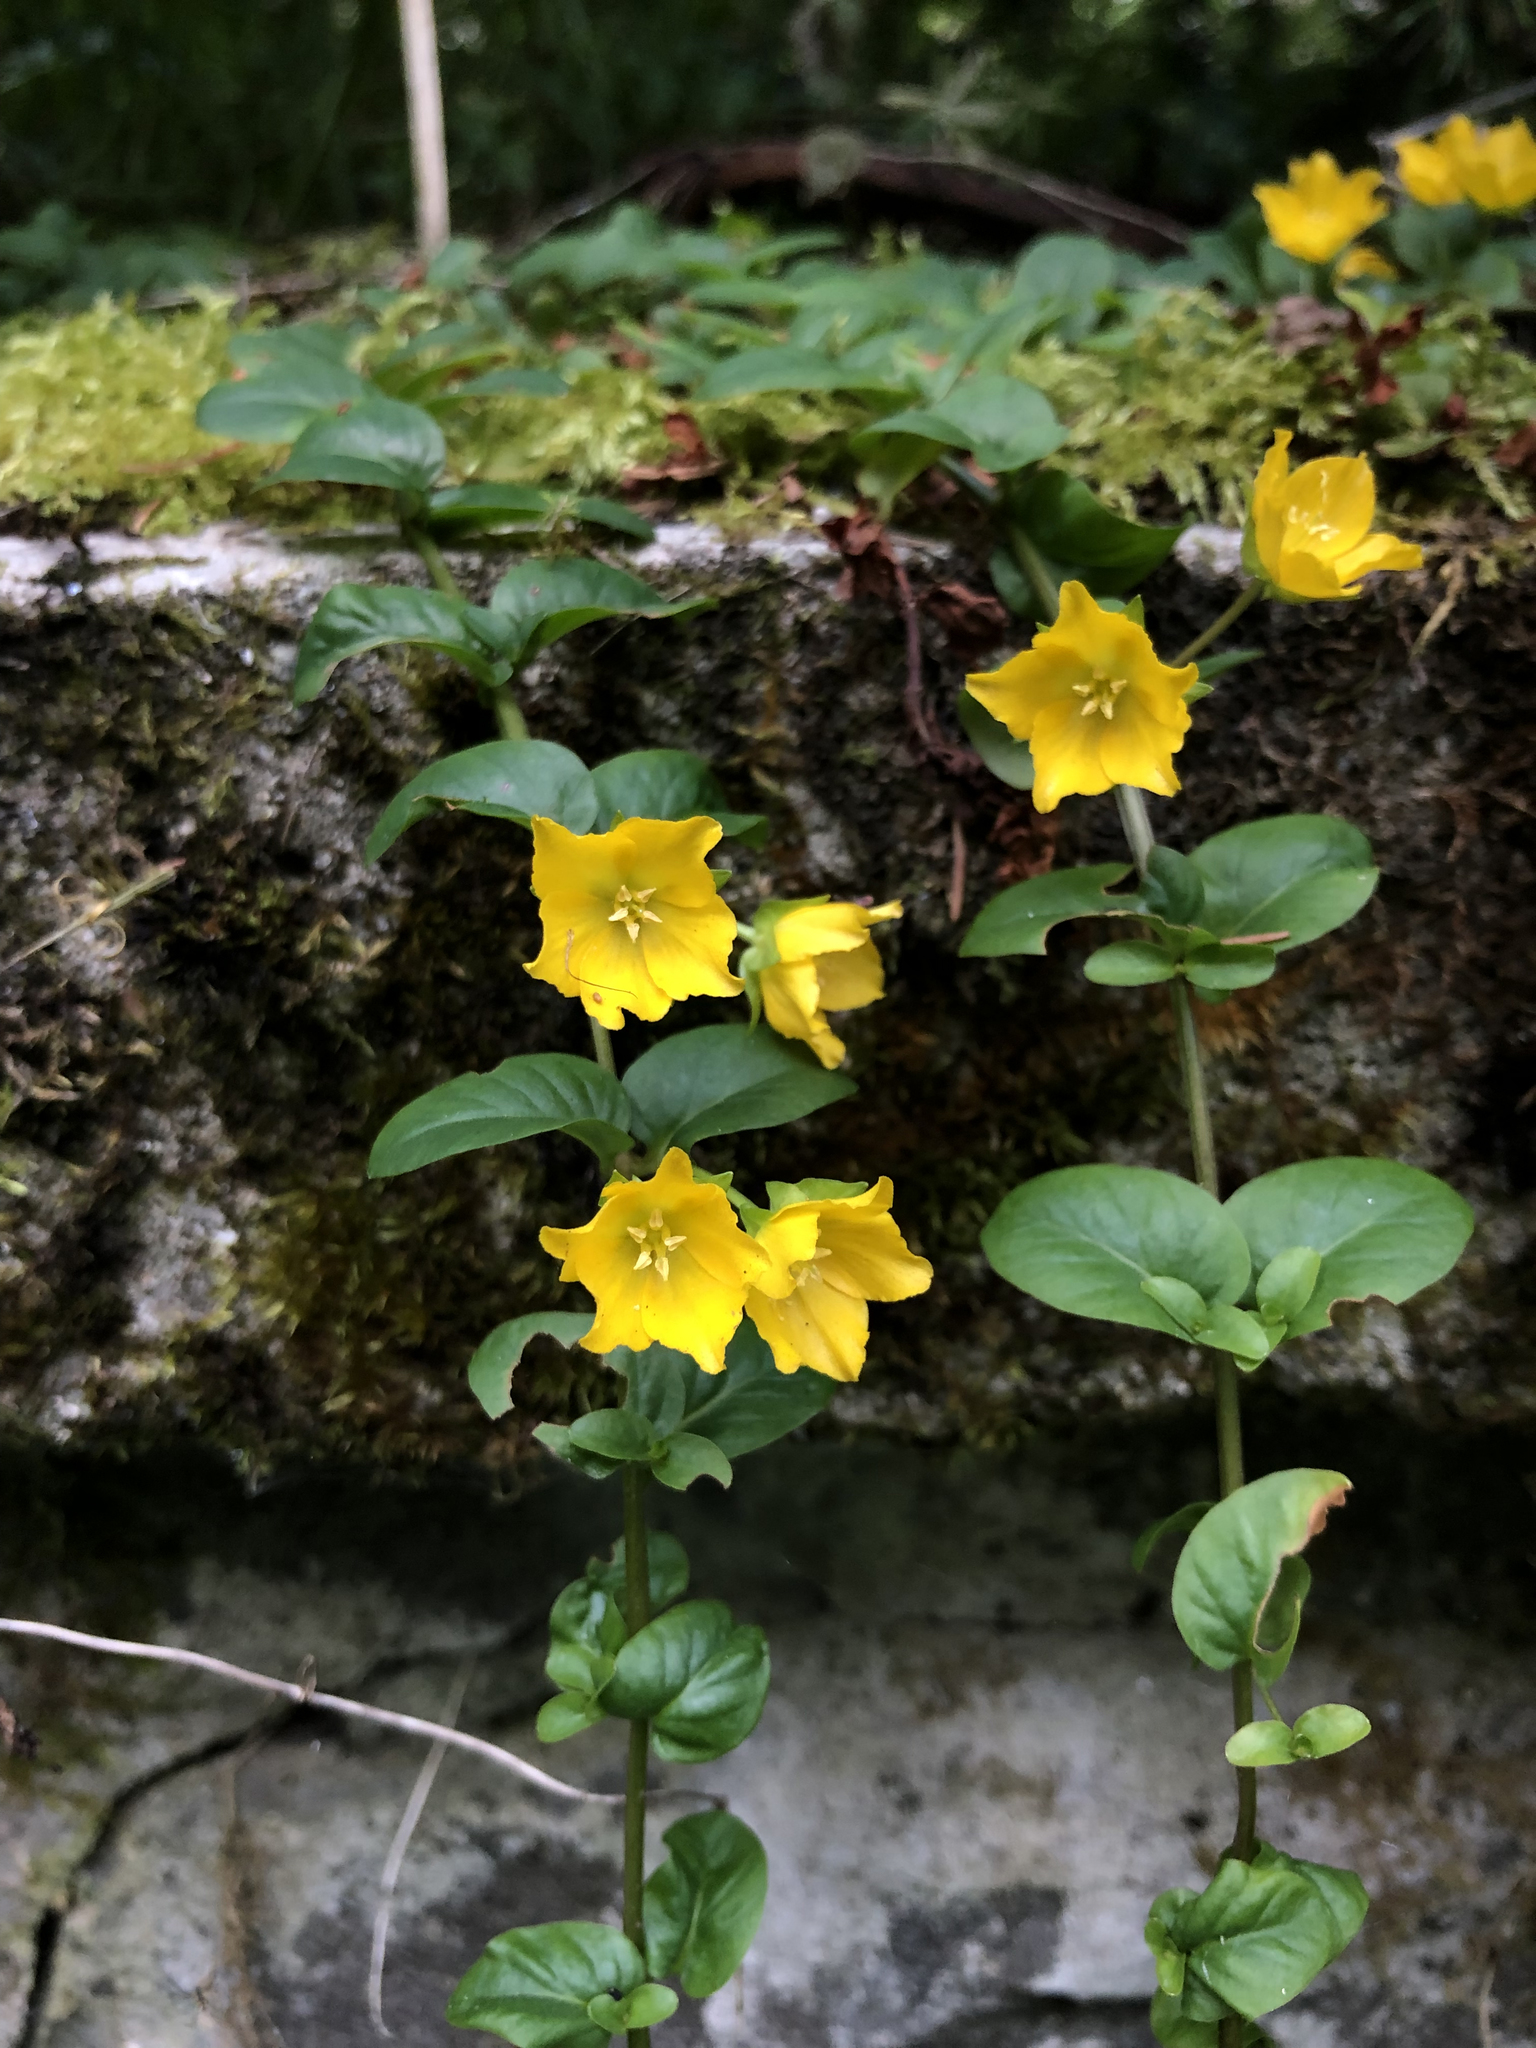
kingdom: Plantae
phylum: Tracheophyta
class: Magnoliopsida
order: Ericales
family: Primulaceae
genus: Lysimachia
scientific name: Lysimachia nummularia
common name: Moneywort
